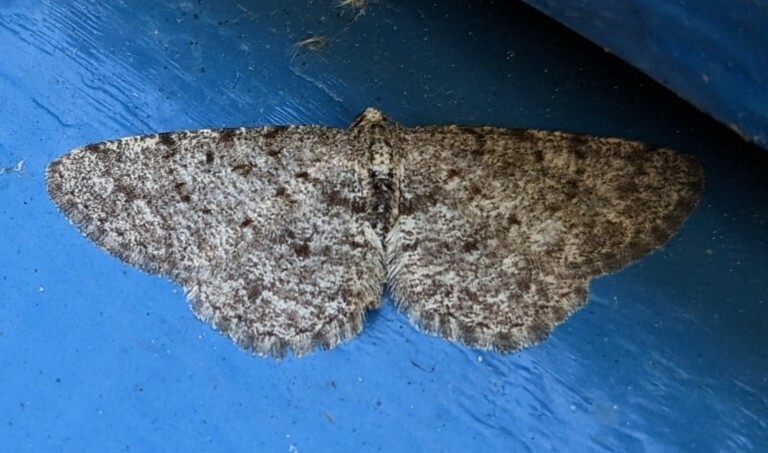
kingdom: Animalia
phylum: Arthropoda
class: Insecta
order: Lepidoptera
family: Geometridae
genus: Aethalura
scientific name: Aethalura intertexta
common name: Four-barred gray
